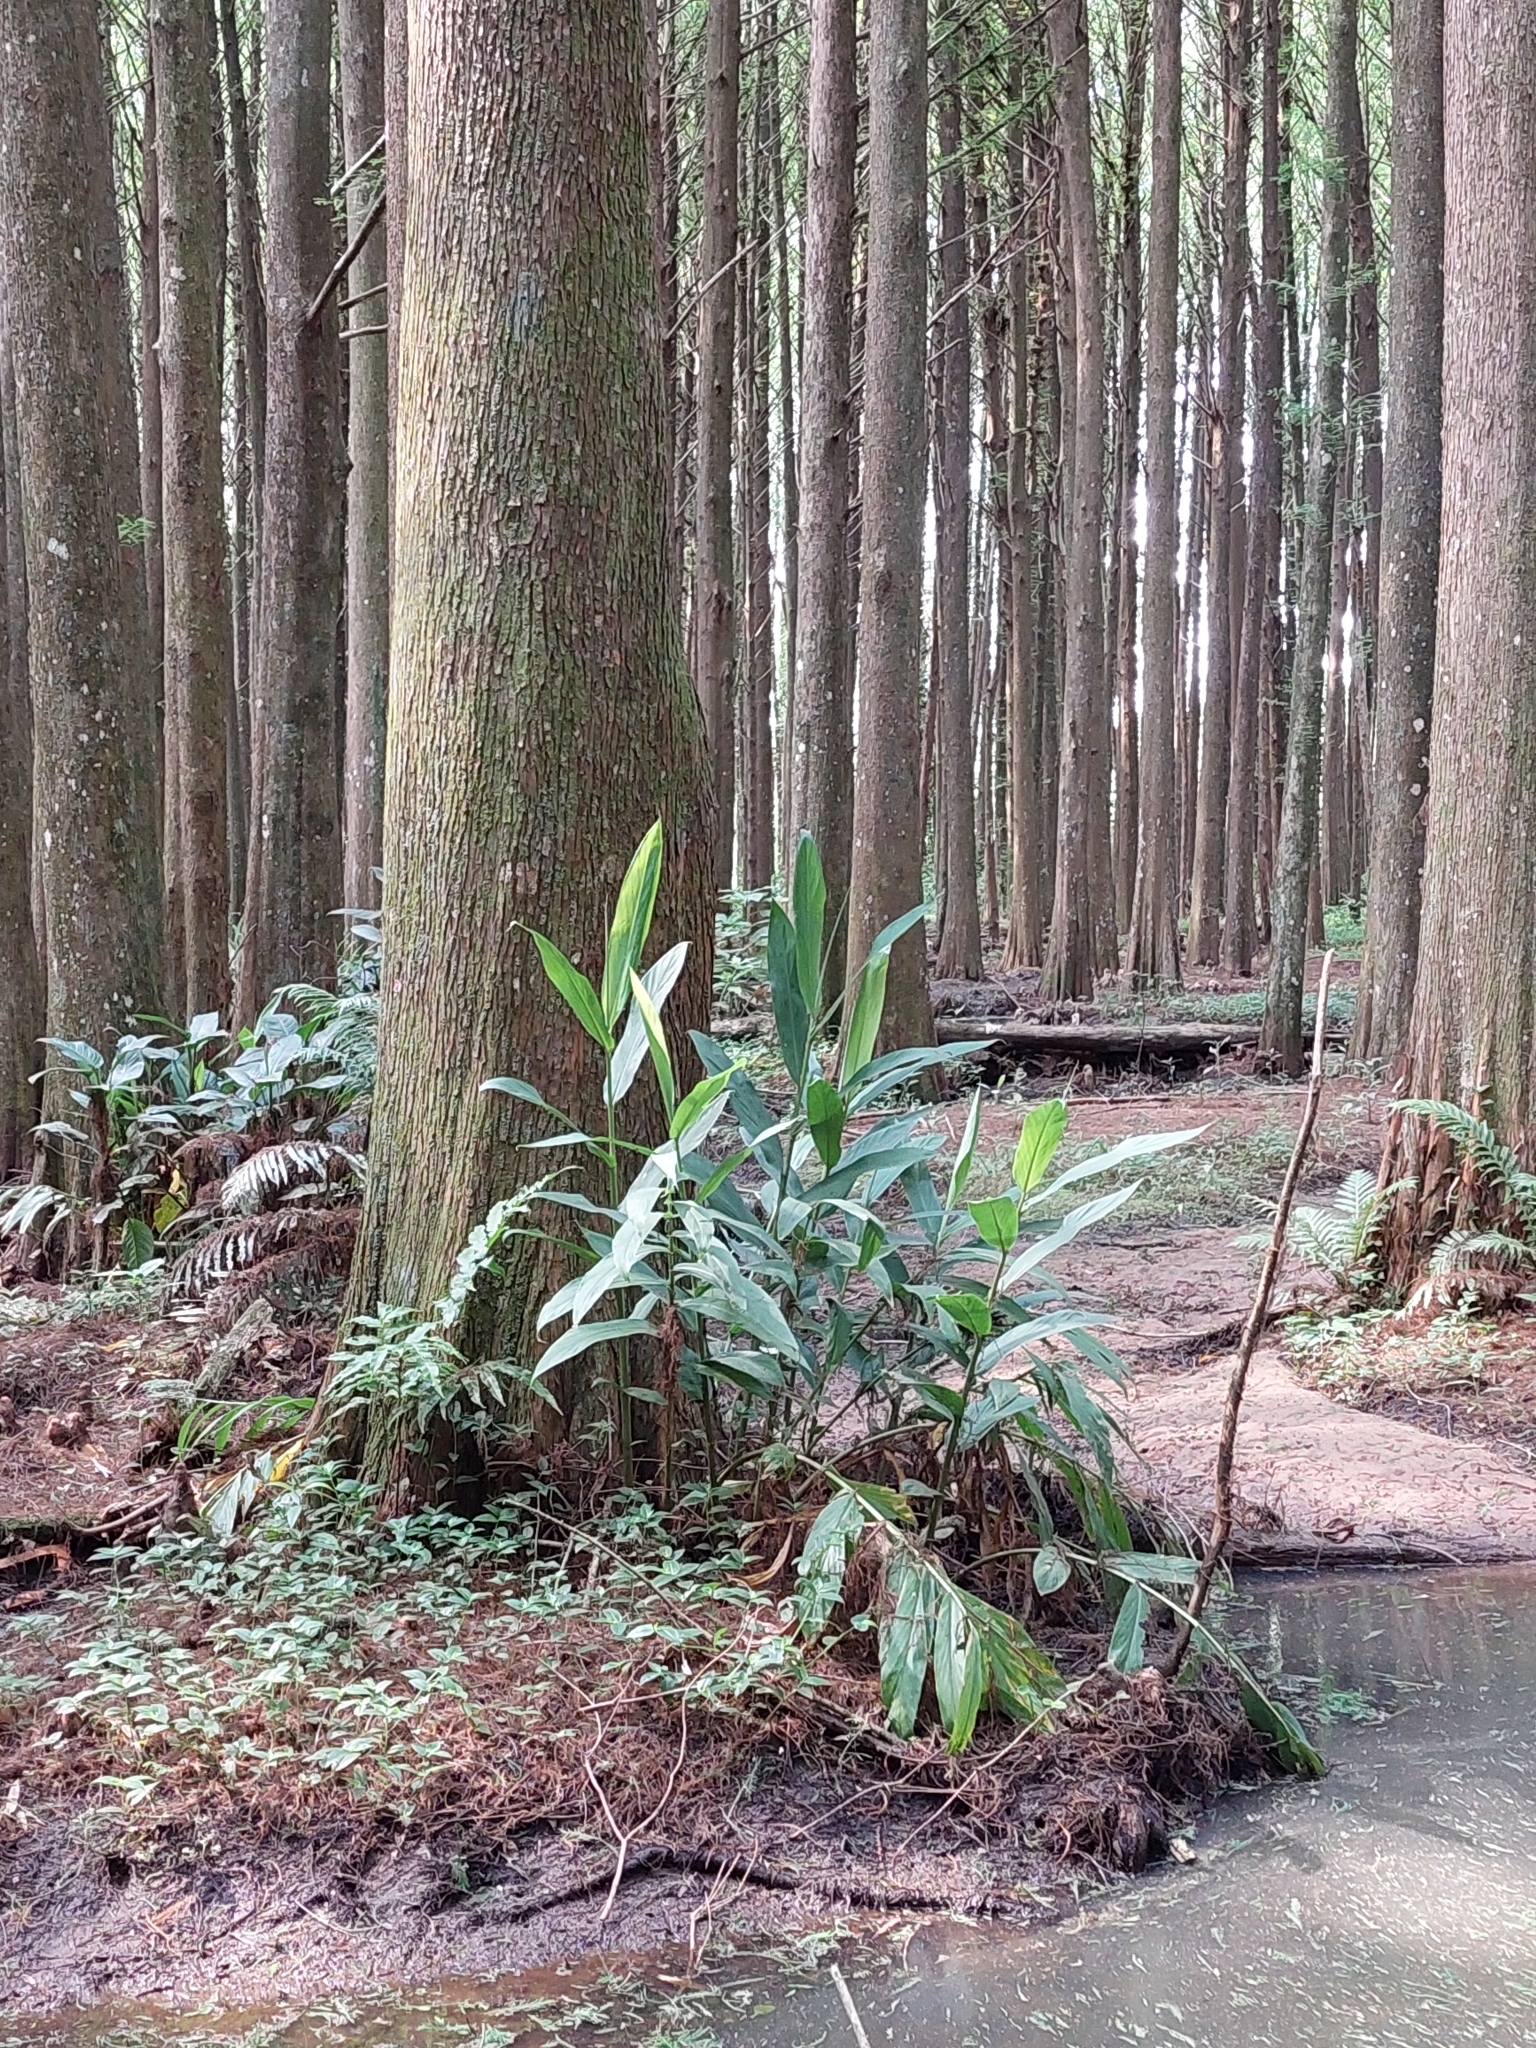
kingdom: Plantae
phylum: Tracheophyta
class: Liliopsida
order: Zingiberales
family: Zingiberaceae
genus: Hedychium
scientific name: Hedychium coronarium
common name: White garland-lily
